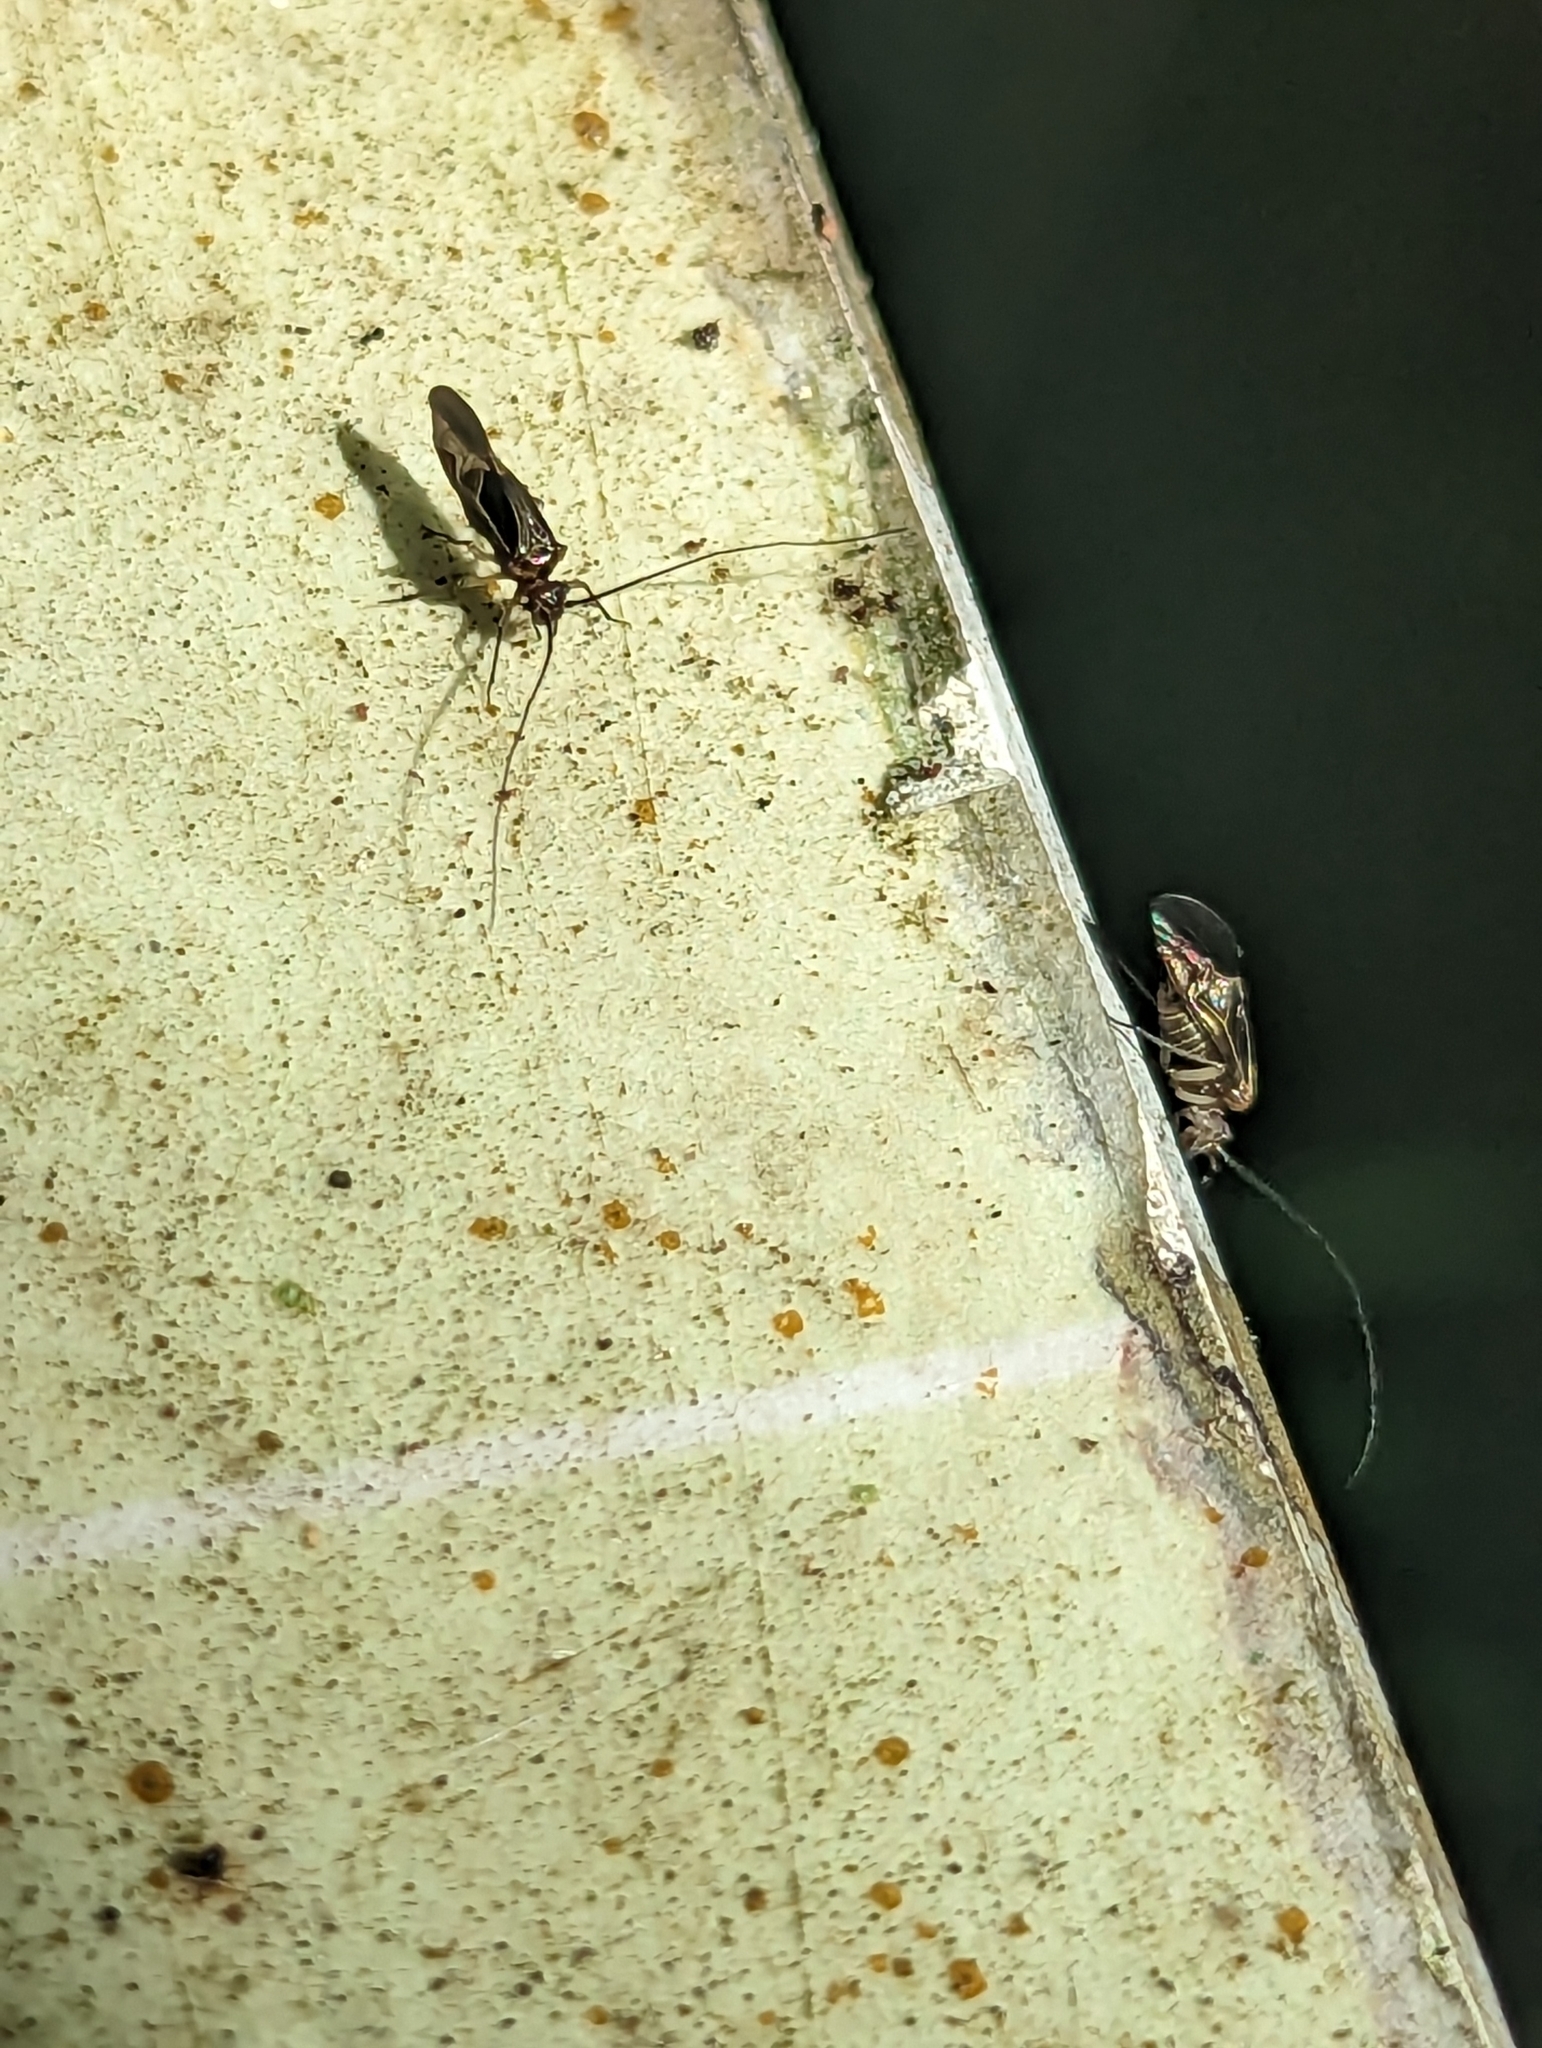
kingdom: Animalia
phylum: Arthropoda
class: Insecta
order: Psocodea
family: Psocidae
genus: Cerastipsocus
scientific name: Cerastipsocus venosus
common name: Tree cattle
